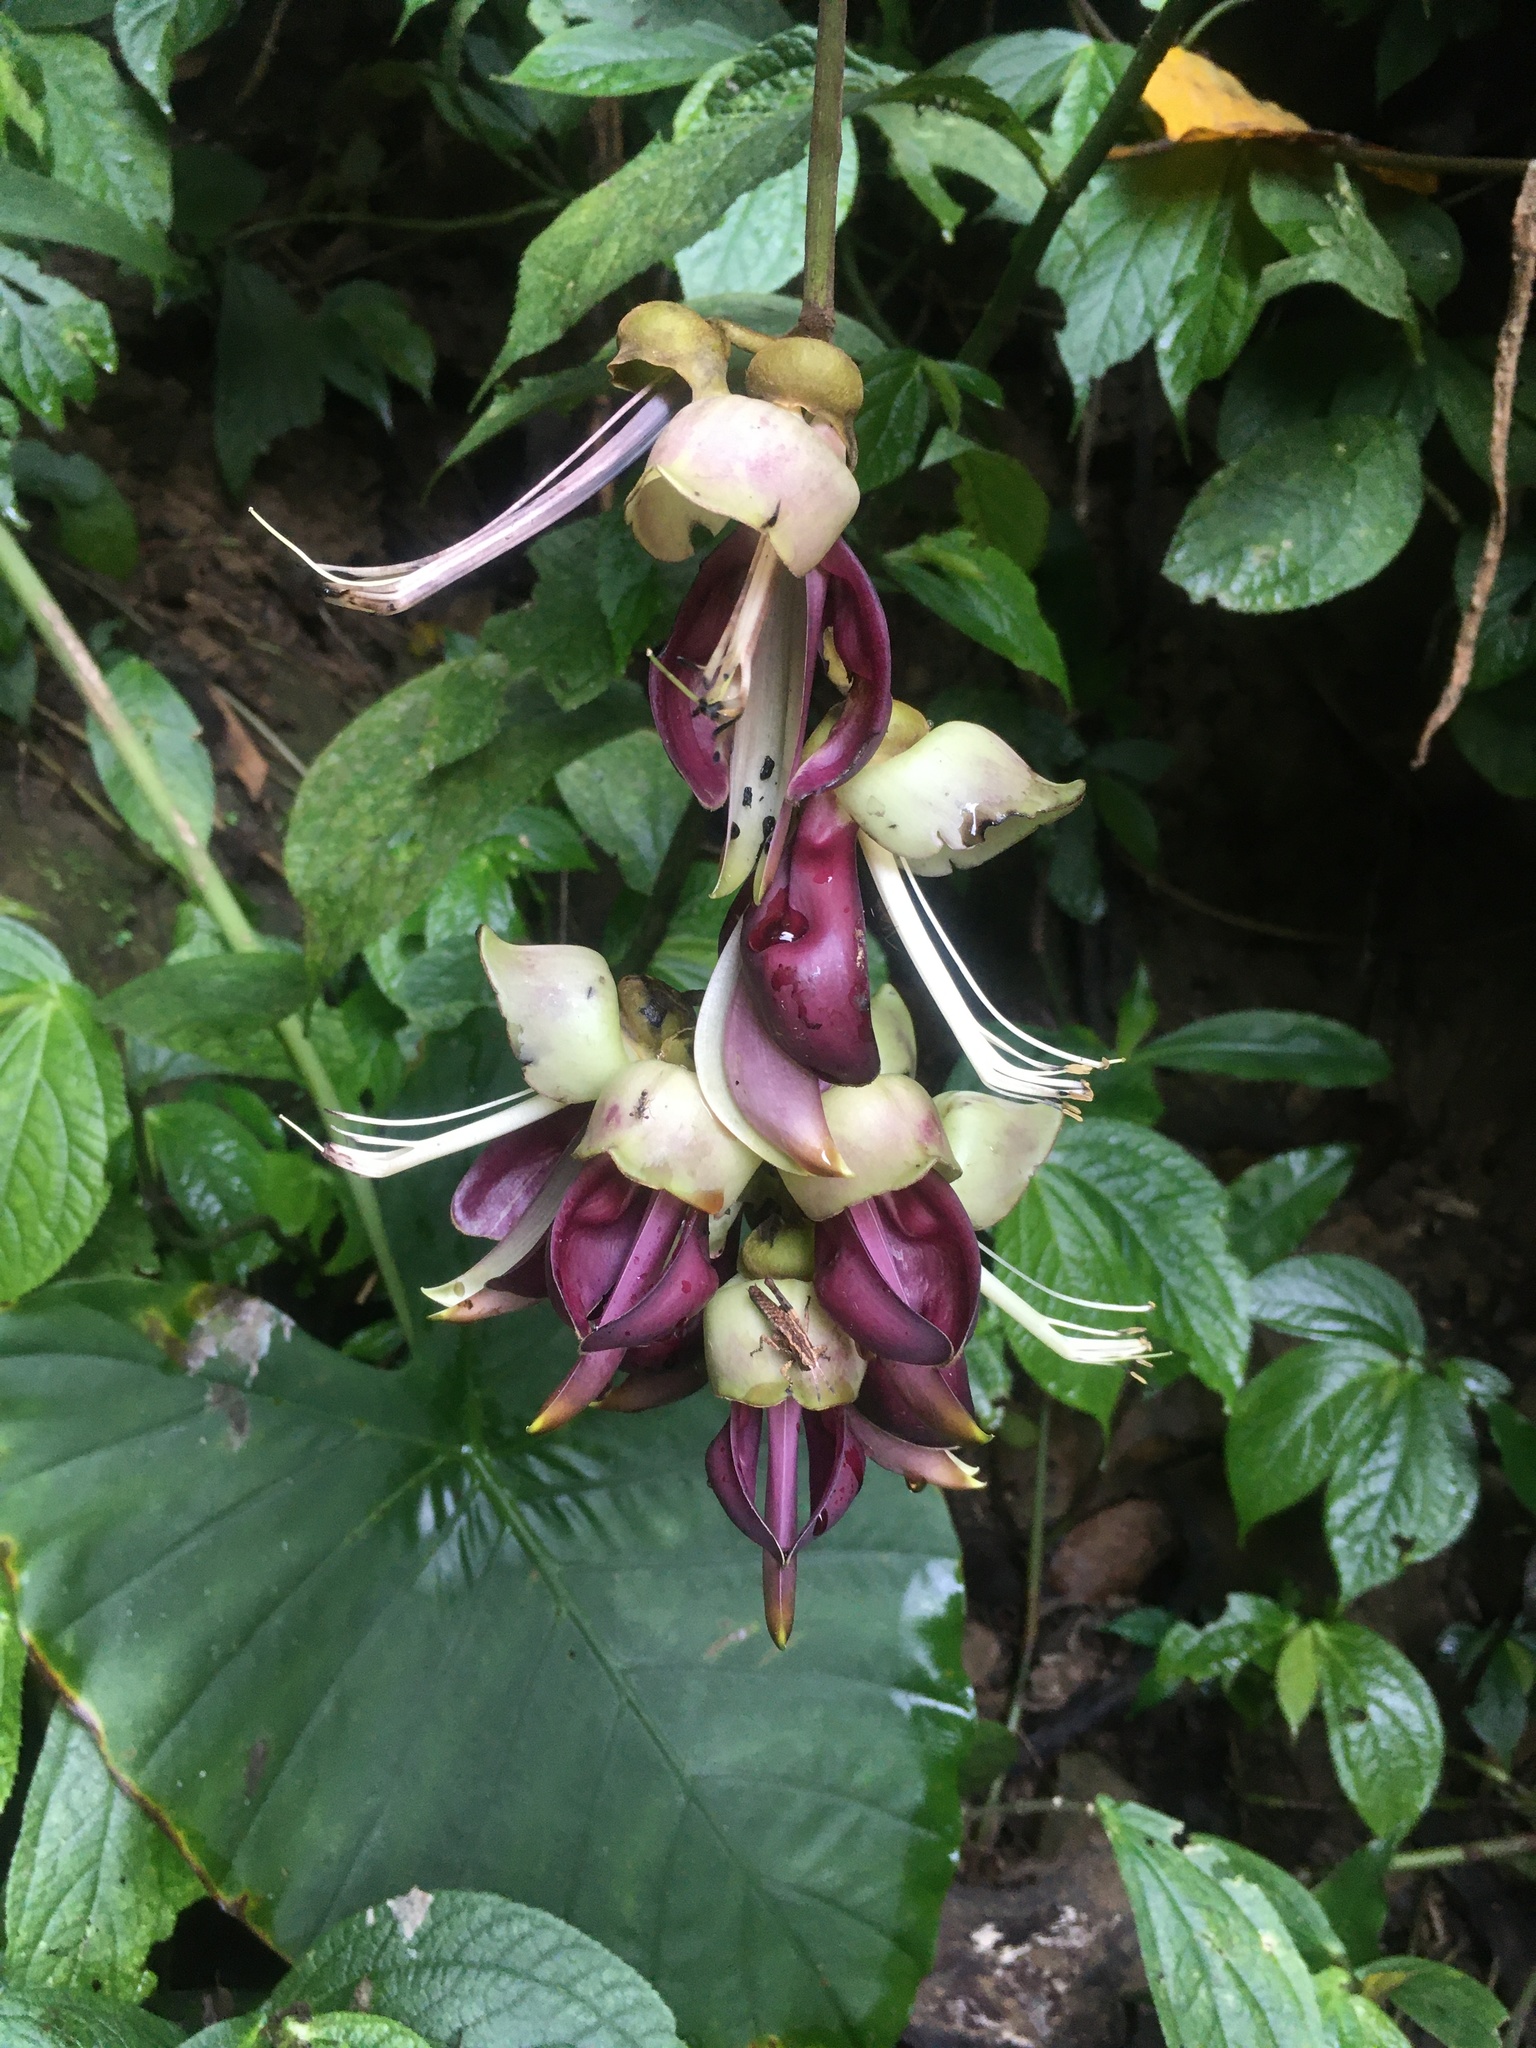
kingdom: Plantae
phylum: Tracheophyta
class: Magnoliopsida
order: Fabales
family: Fabaceae
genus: Mucuna
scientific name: Mucuna macrocarpa
